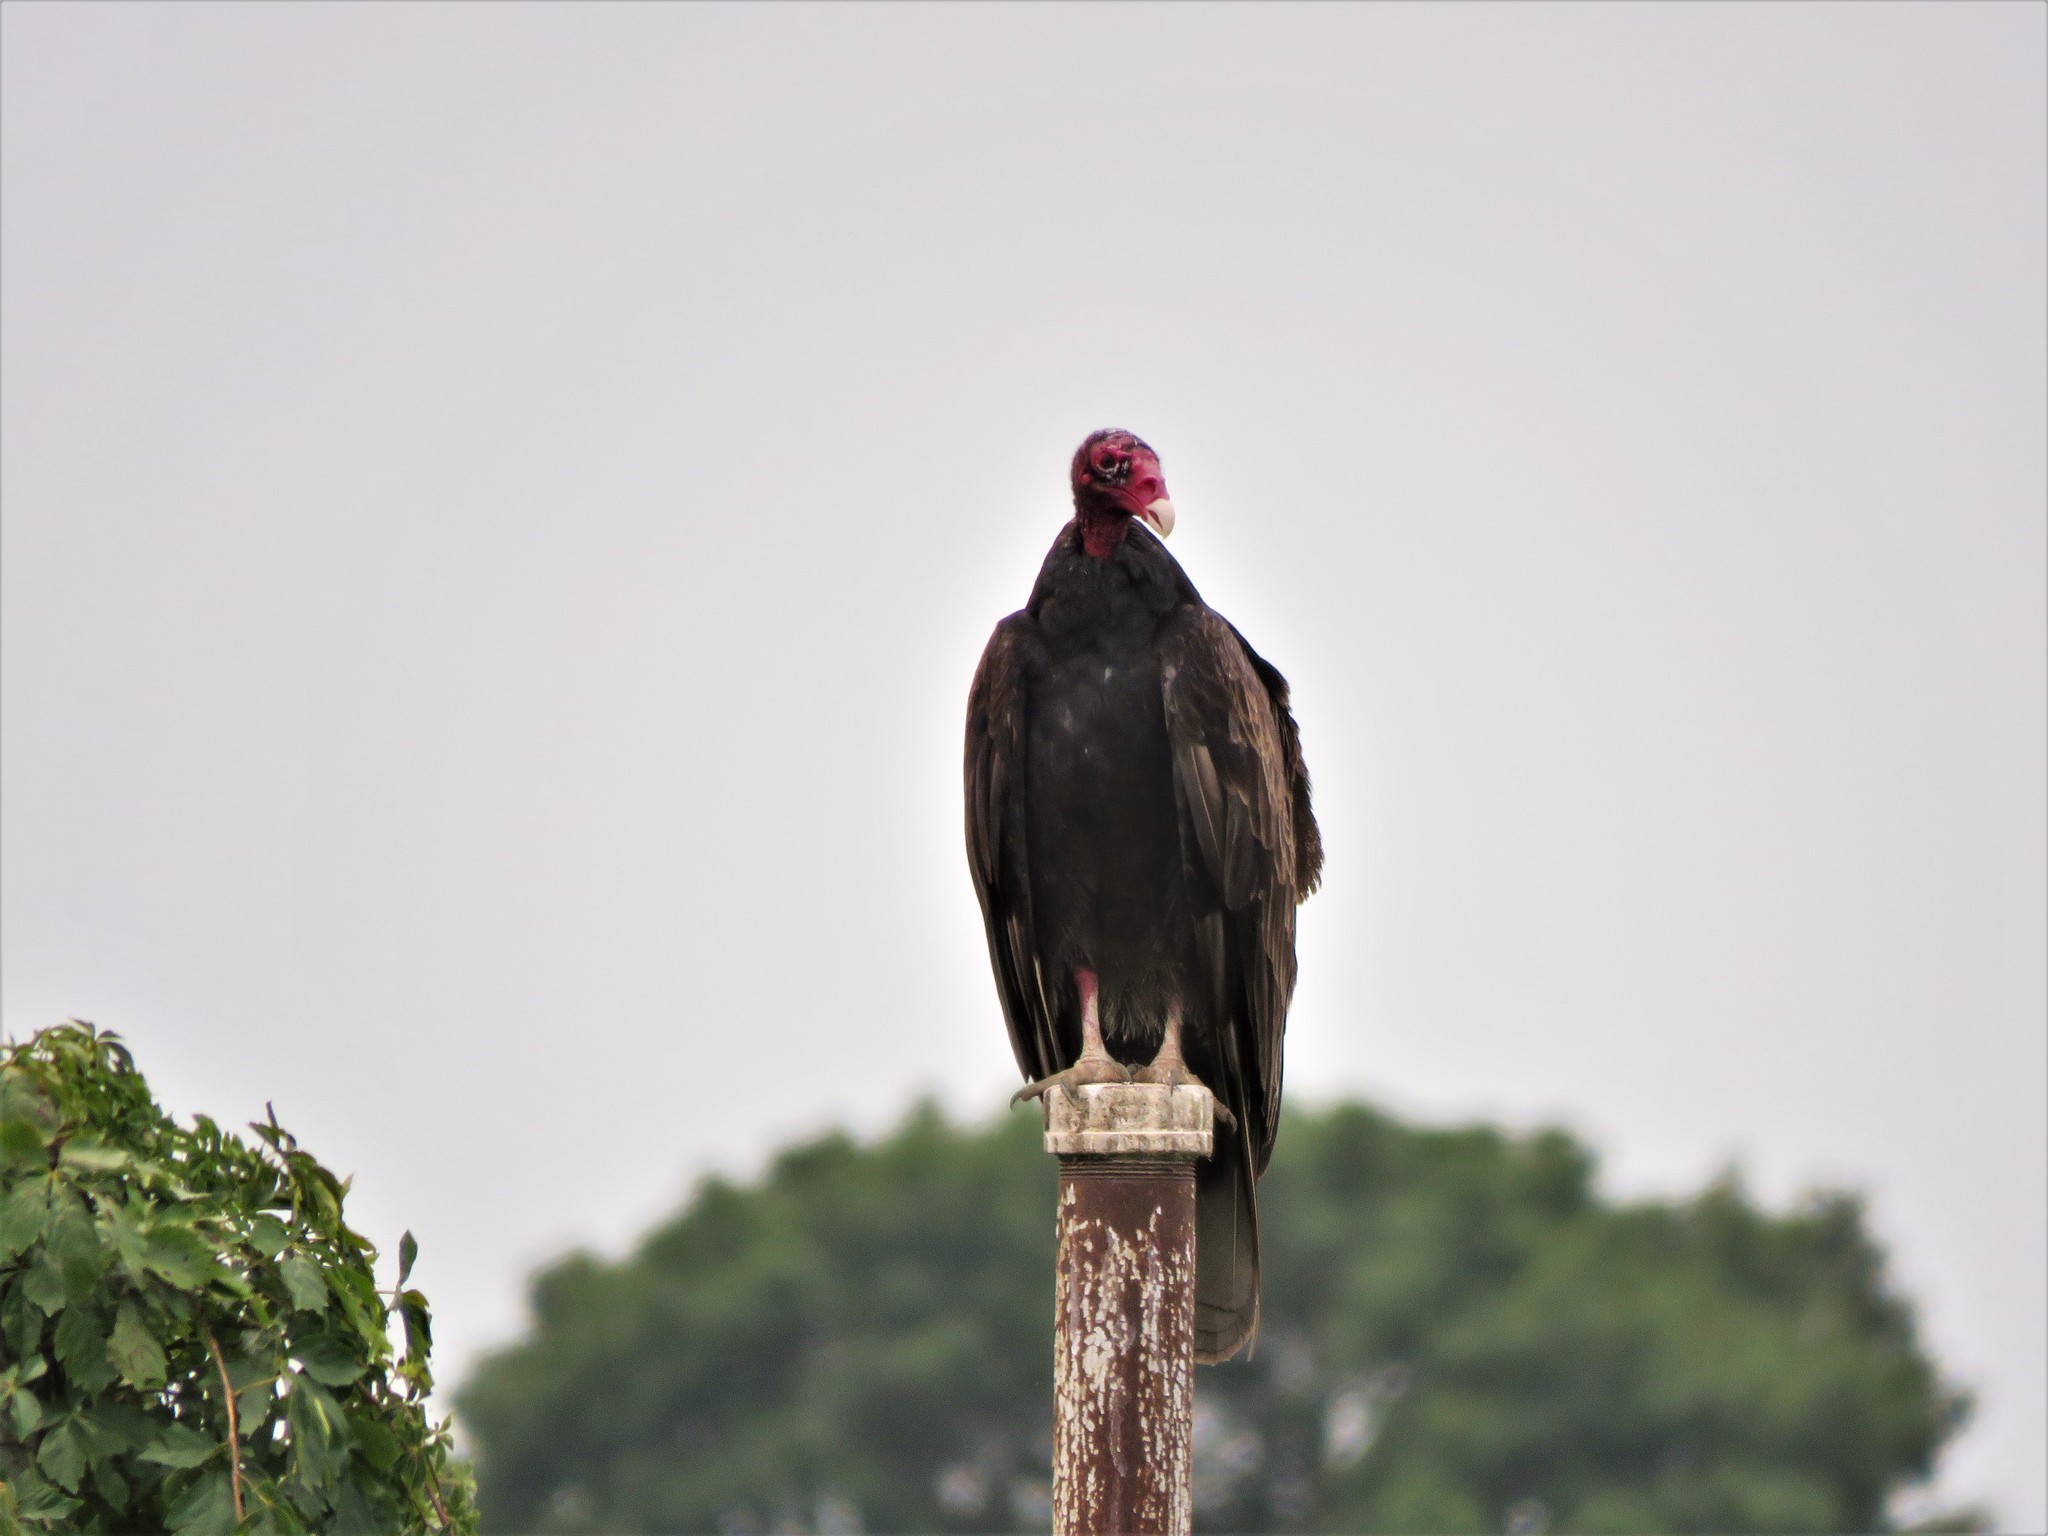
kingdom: Animalia
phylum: Chordata
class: Aves
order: Accipitriformes
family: Cathartidae
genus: Cathartes
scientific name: Cathartes aura
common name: Turkey vulture
